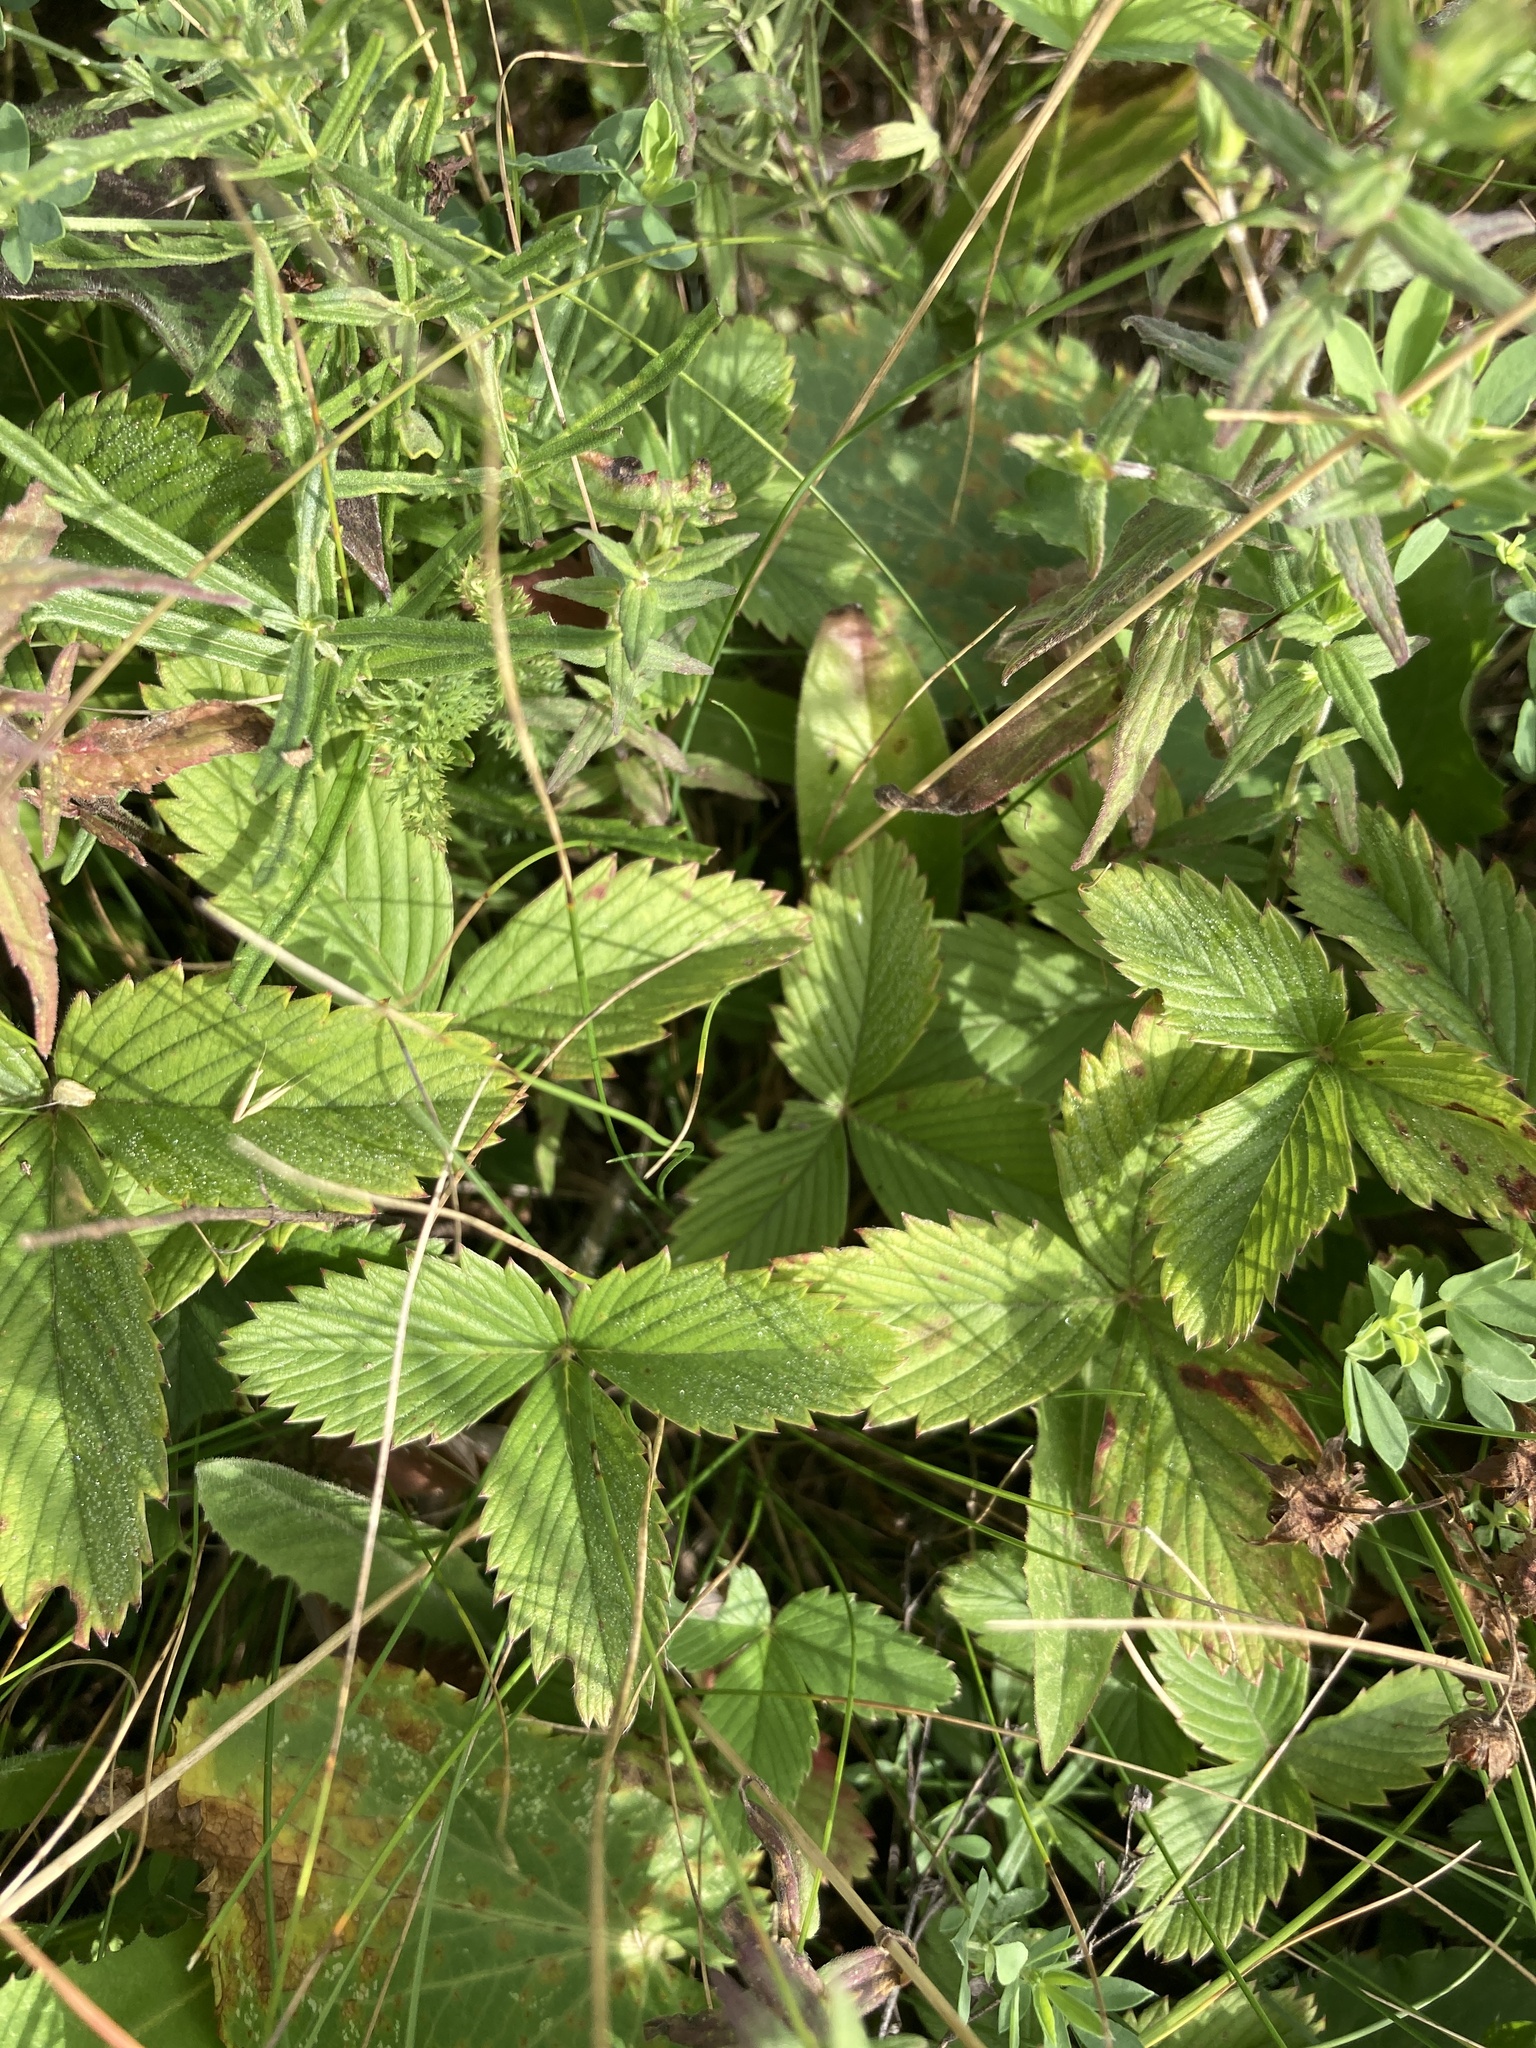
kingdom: Plantae
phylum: Tracheophyta
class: Magnoliopsida
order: Rosales
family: Rosaceae
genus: Fragaria
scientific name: Fragaria viridis
